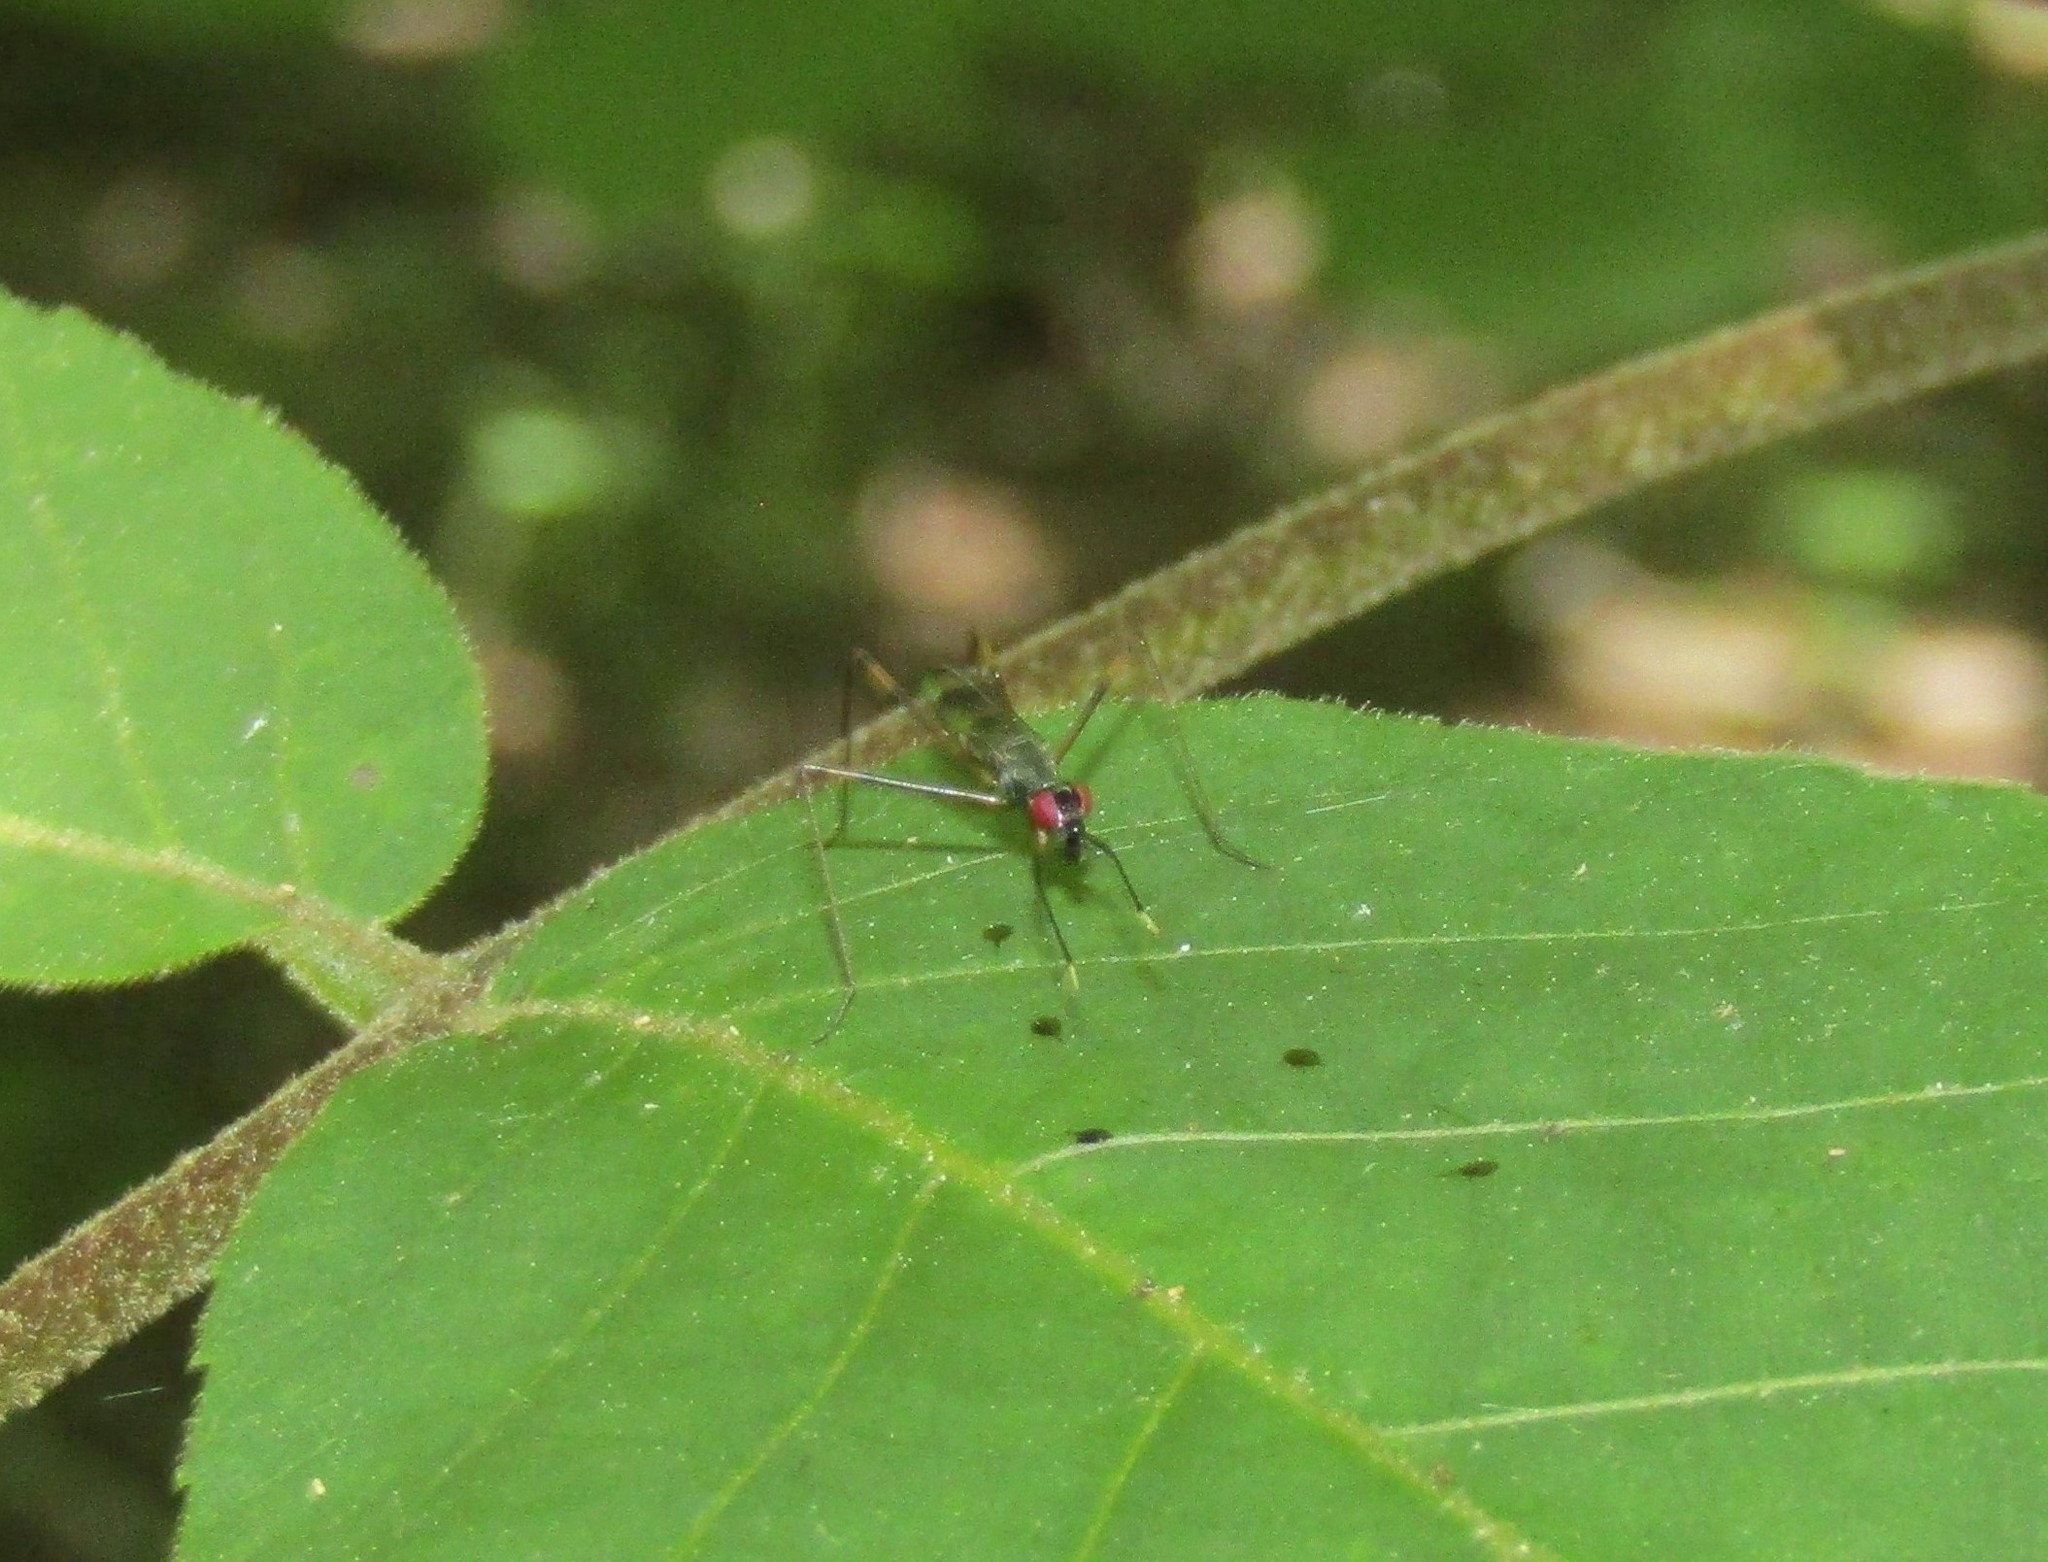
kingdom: Animalia
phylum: Arthropoda
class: Insecta
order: Diptera
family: Micropezidae
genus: Rainieria
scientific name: Rainieria antennaepes
